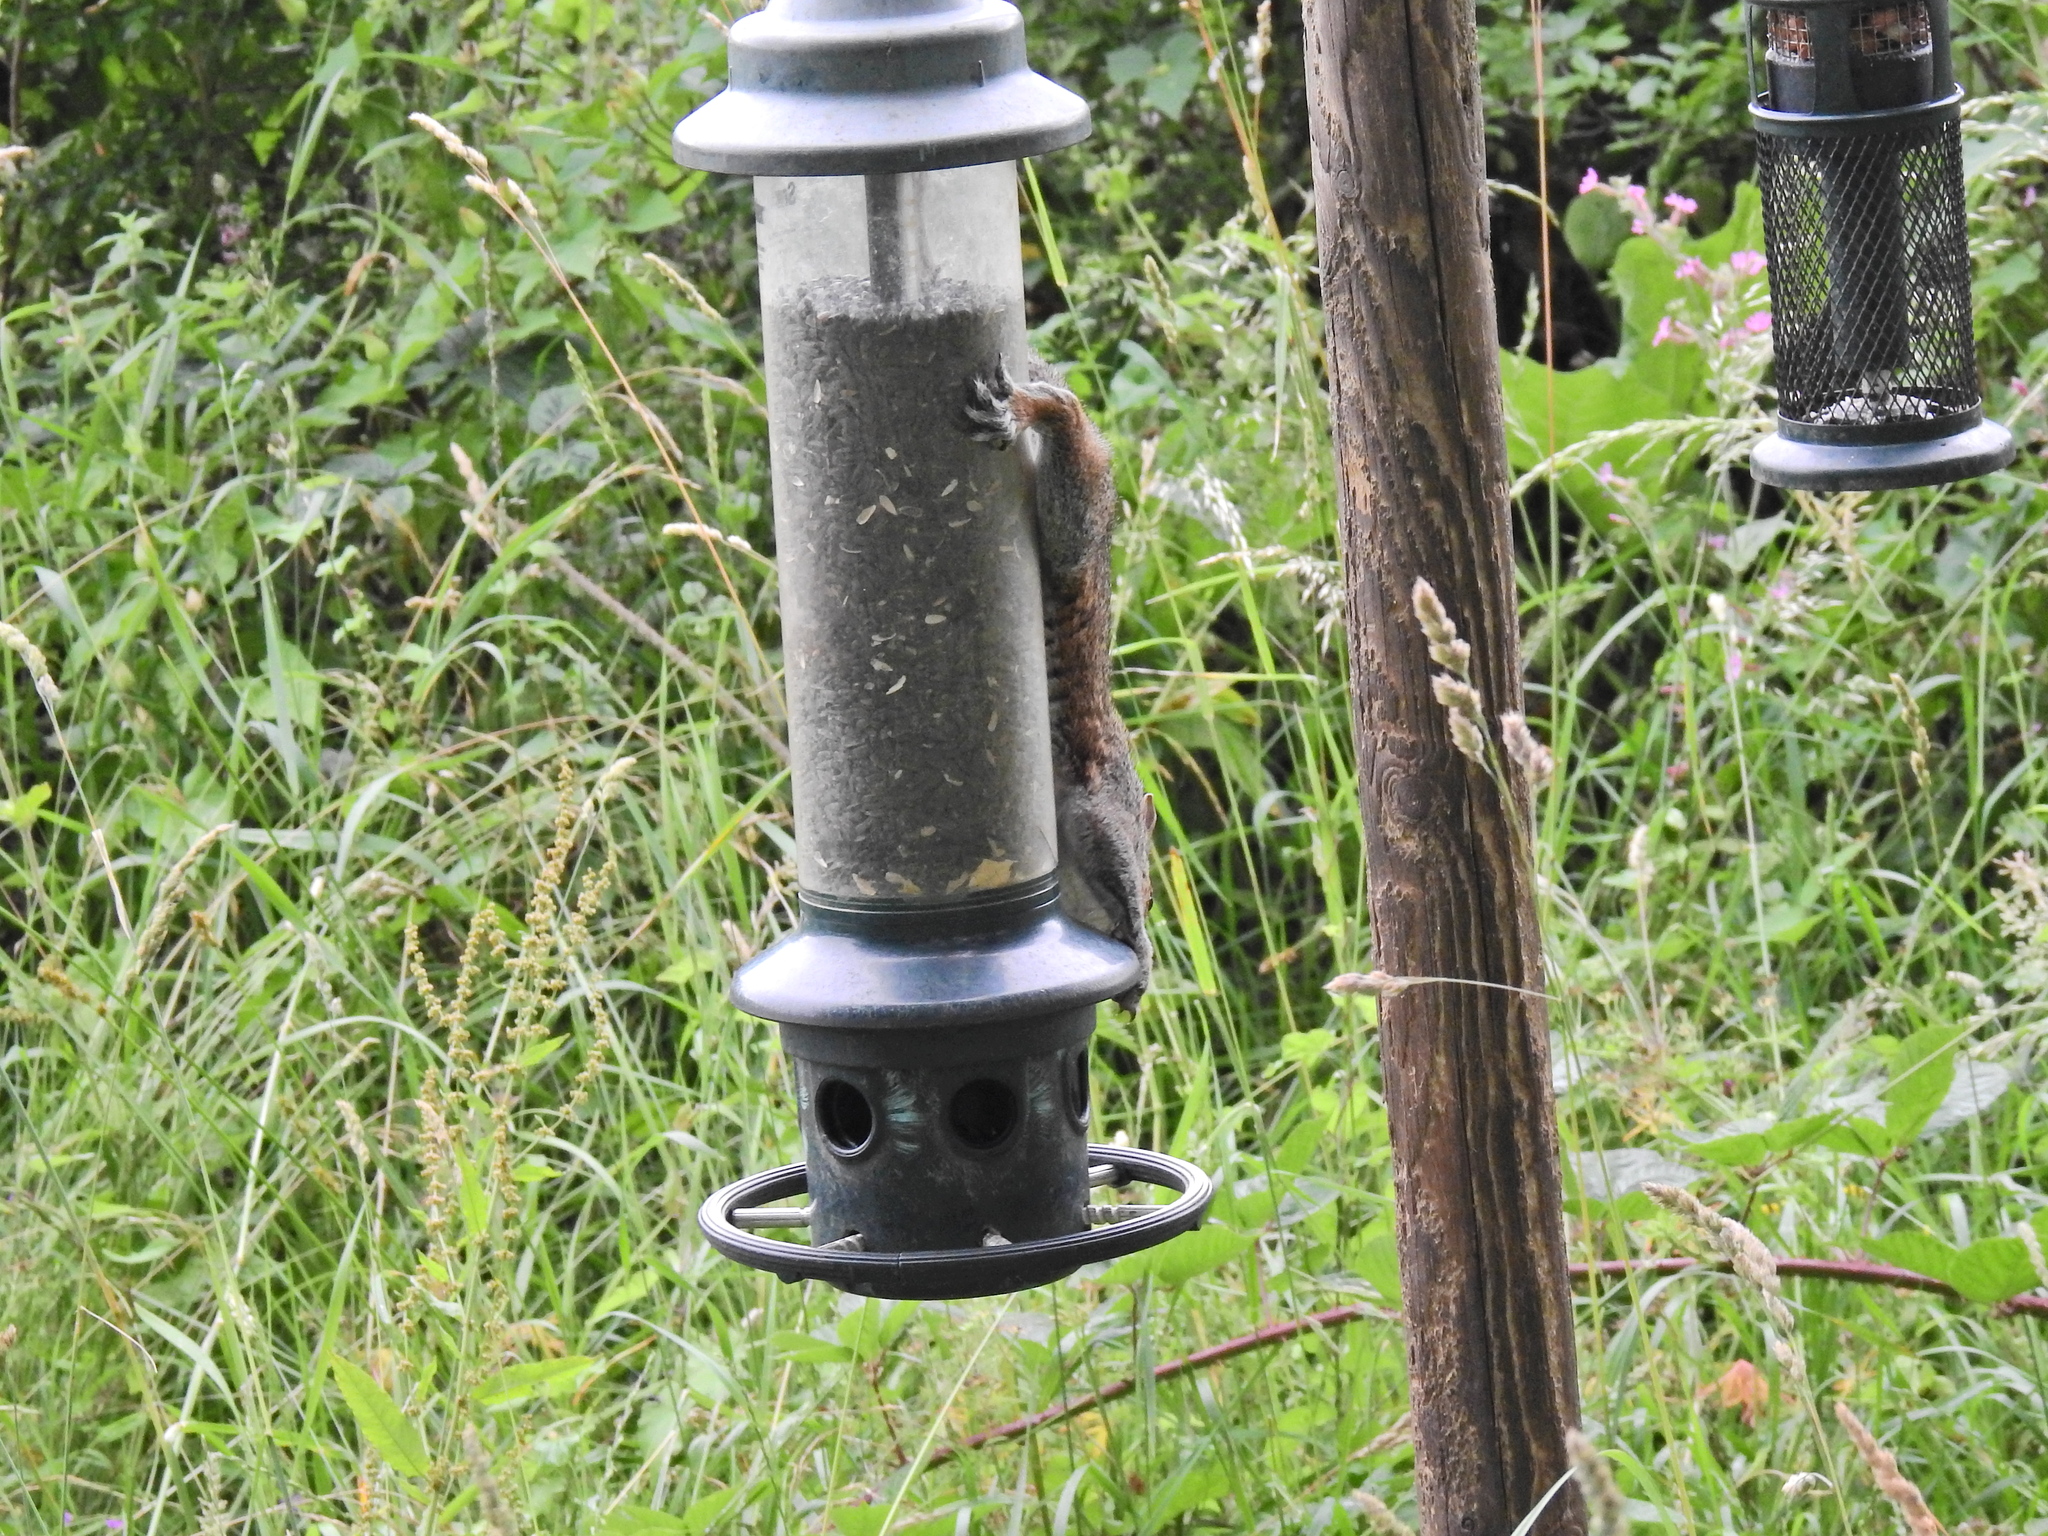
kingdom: Animalia
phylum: Chordata
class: Mammalia
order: Rodentia
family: Sciuridae
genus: Sciurus
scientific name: Sciurus carolinensis
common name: Eastern gray squirrel
